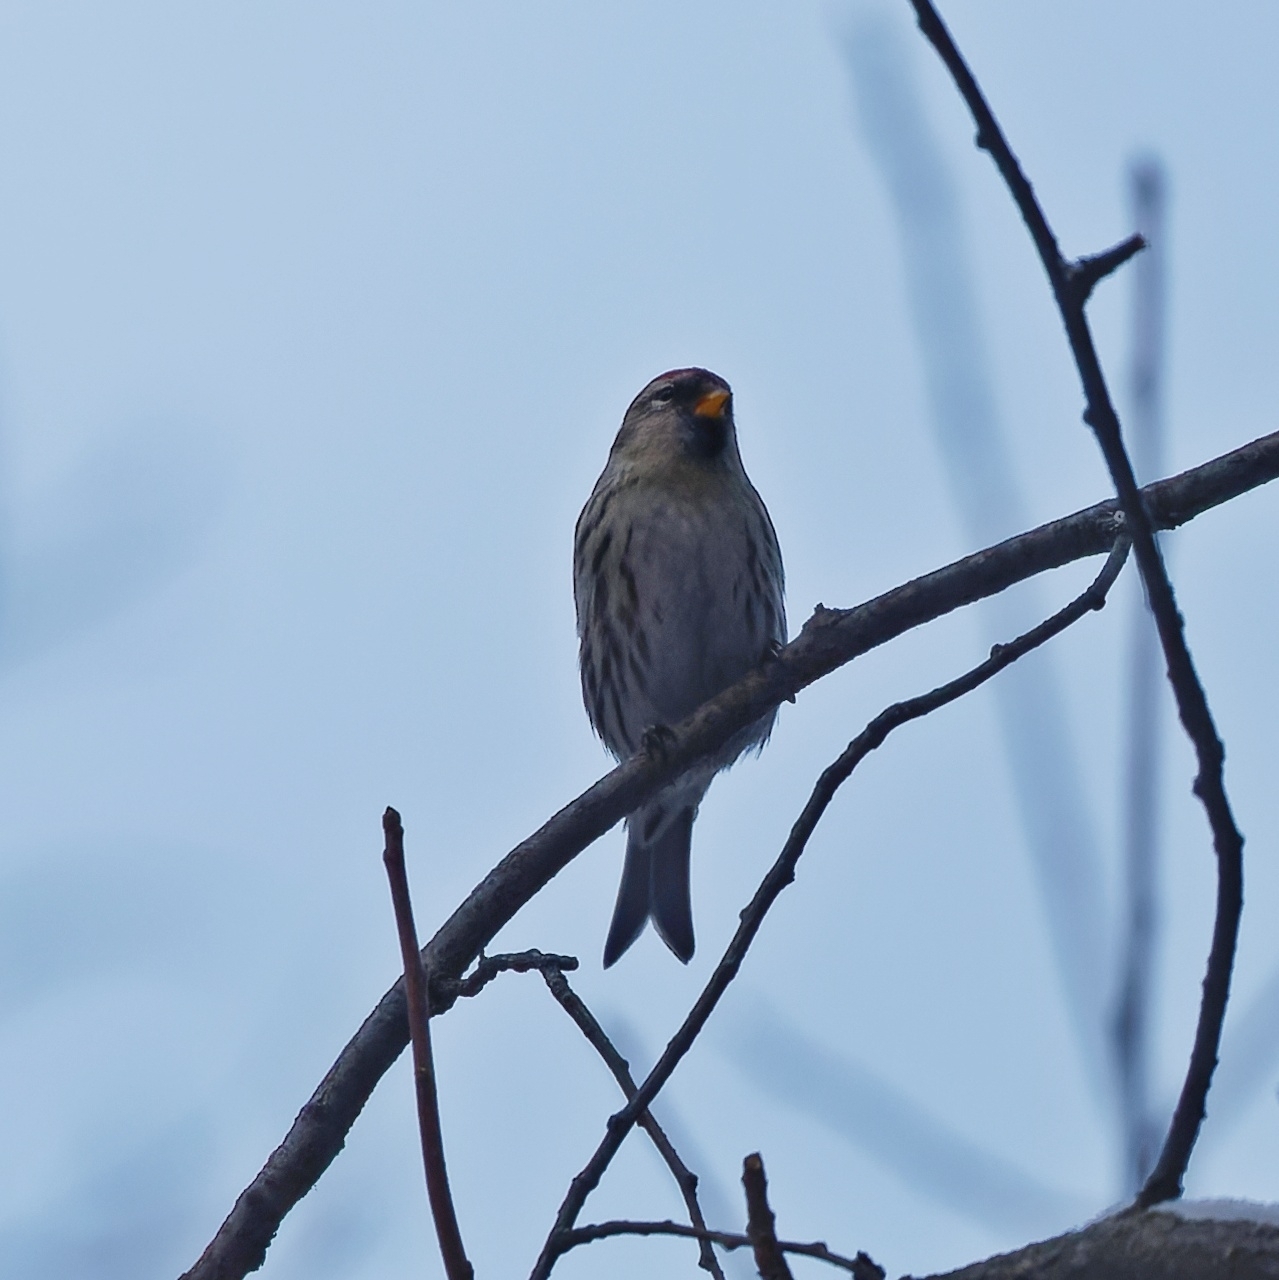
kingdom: Animalia
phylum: Chordata
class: Aves
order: Passeriformes
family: Fringillidae
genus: Acanthis
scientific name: Acanthis flammea
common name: Common redpoll
